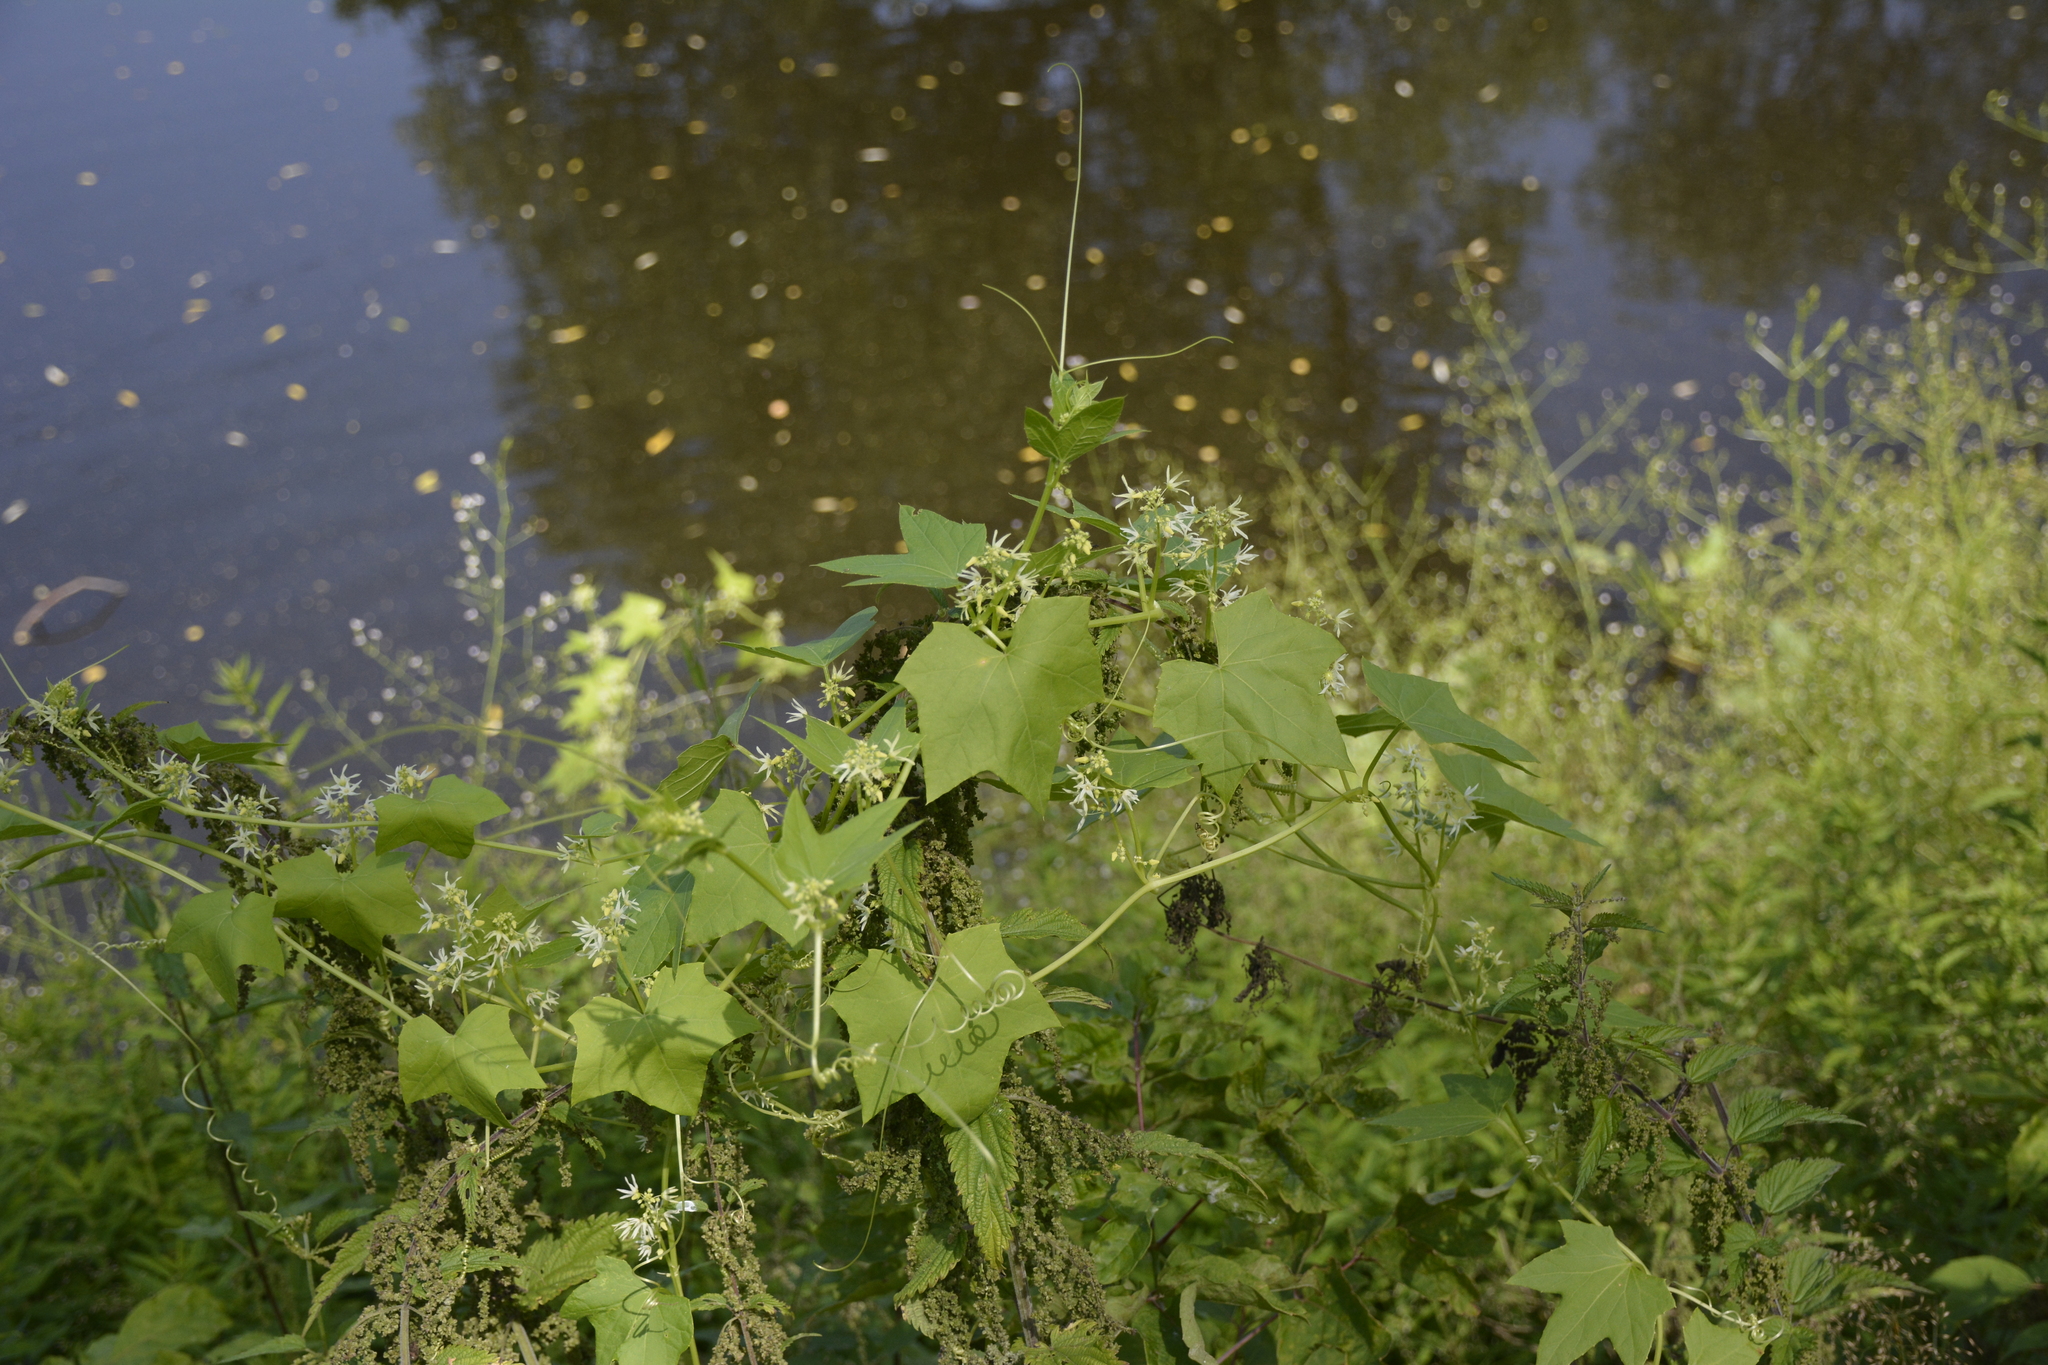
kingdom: Plantae
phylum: Tracheophyta
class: Magnoliopsida
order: Cucurbitales
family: Cucurbitaceae
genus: Echinocystis
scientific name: Echinocystis lobata
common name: Wild cucumber
